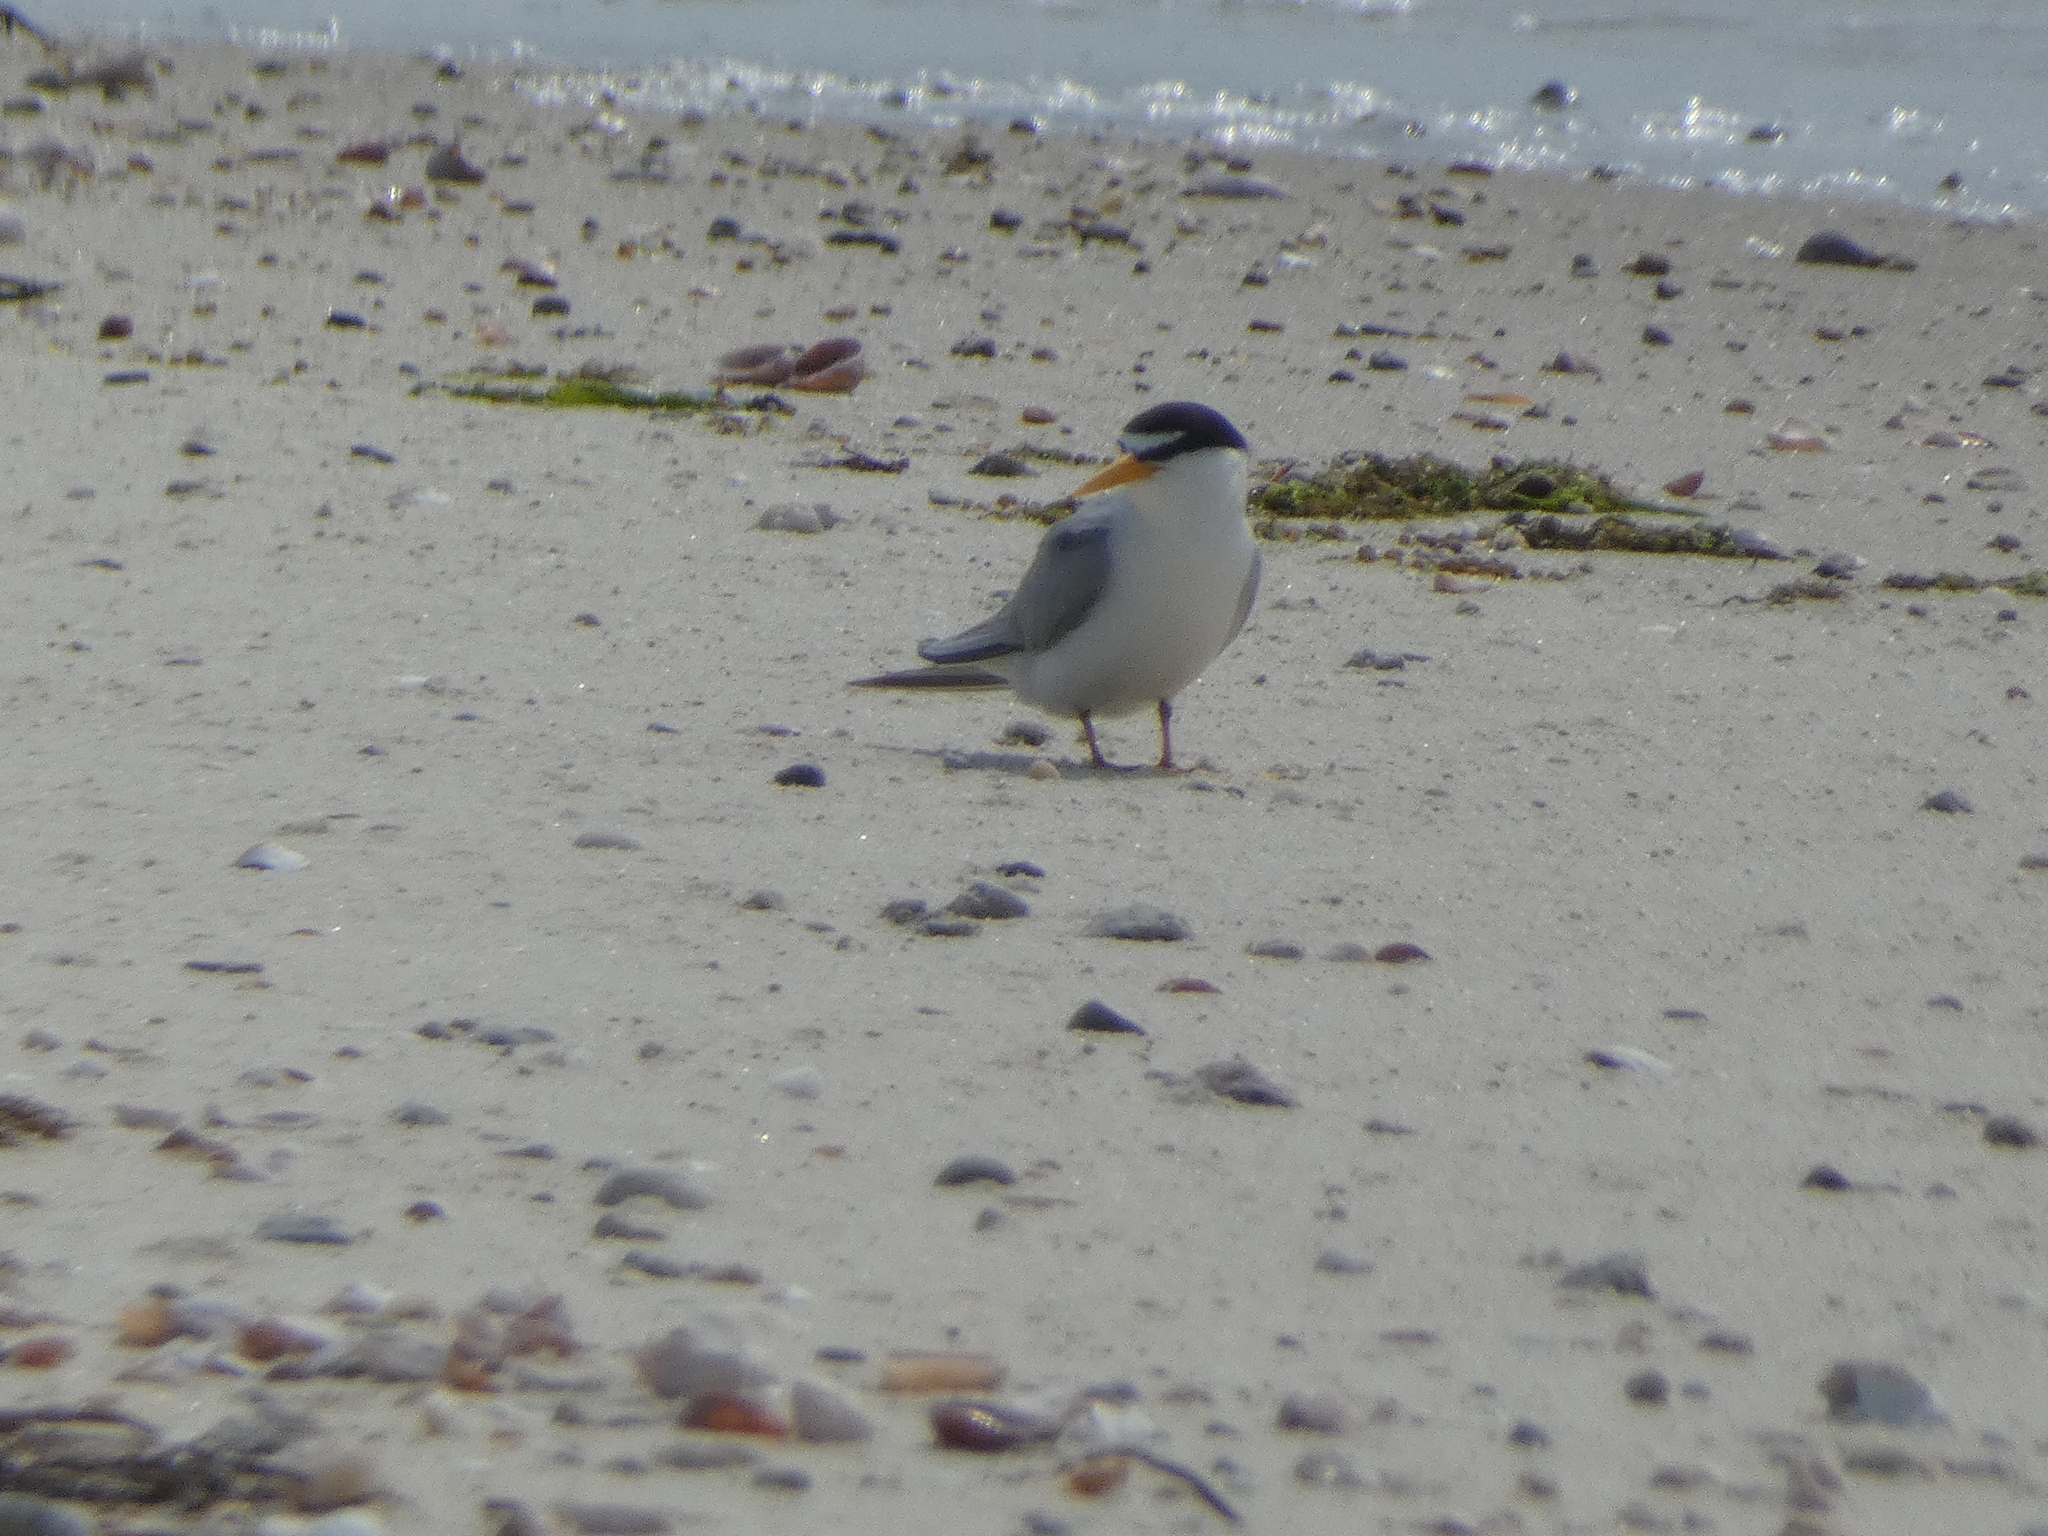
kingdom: Animalia
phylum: Chordata
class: Aves
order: Charadriiformes
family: Laridae
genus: Sternula
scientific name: Sternula antillarum
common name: Least tern
